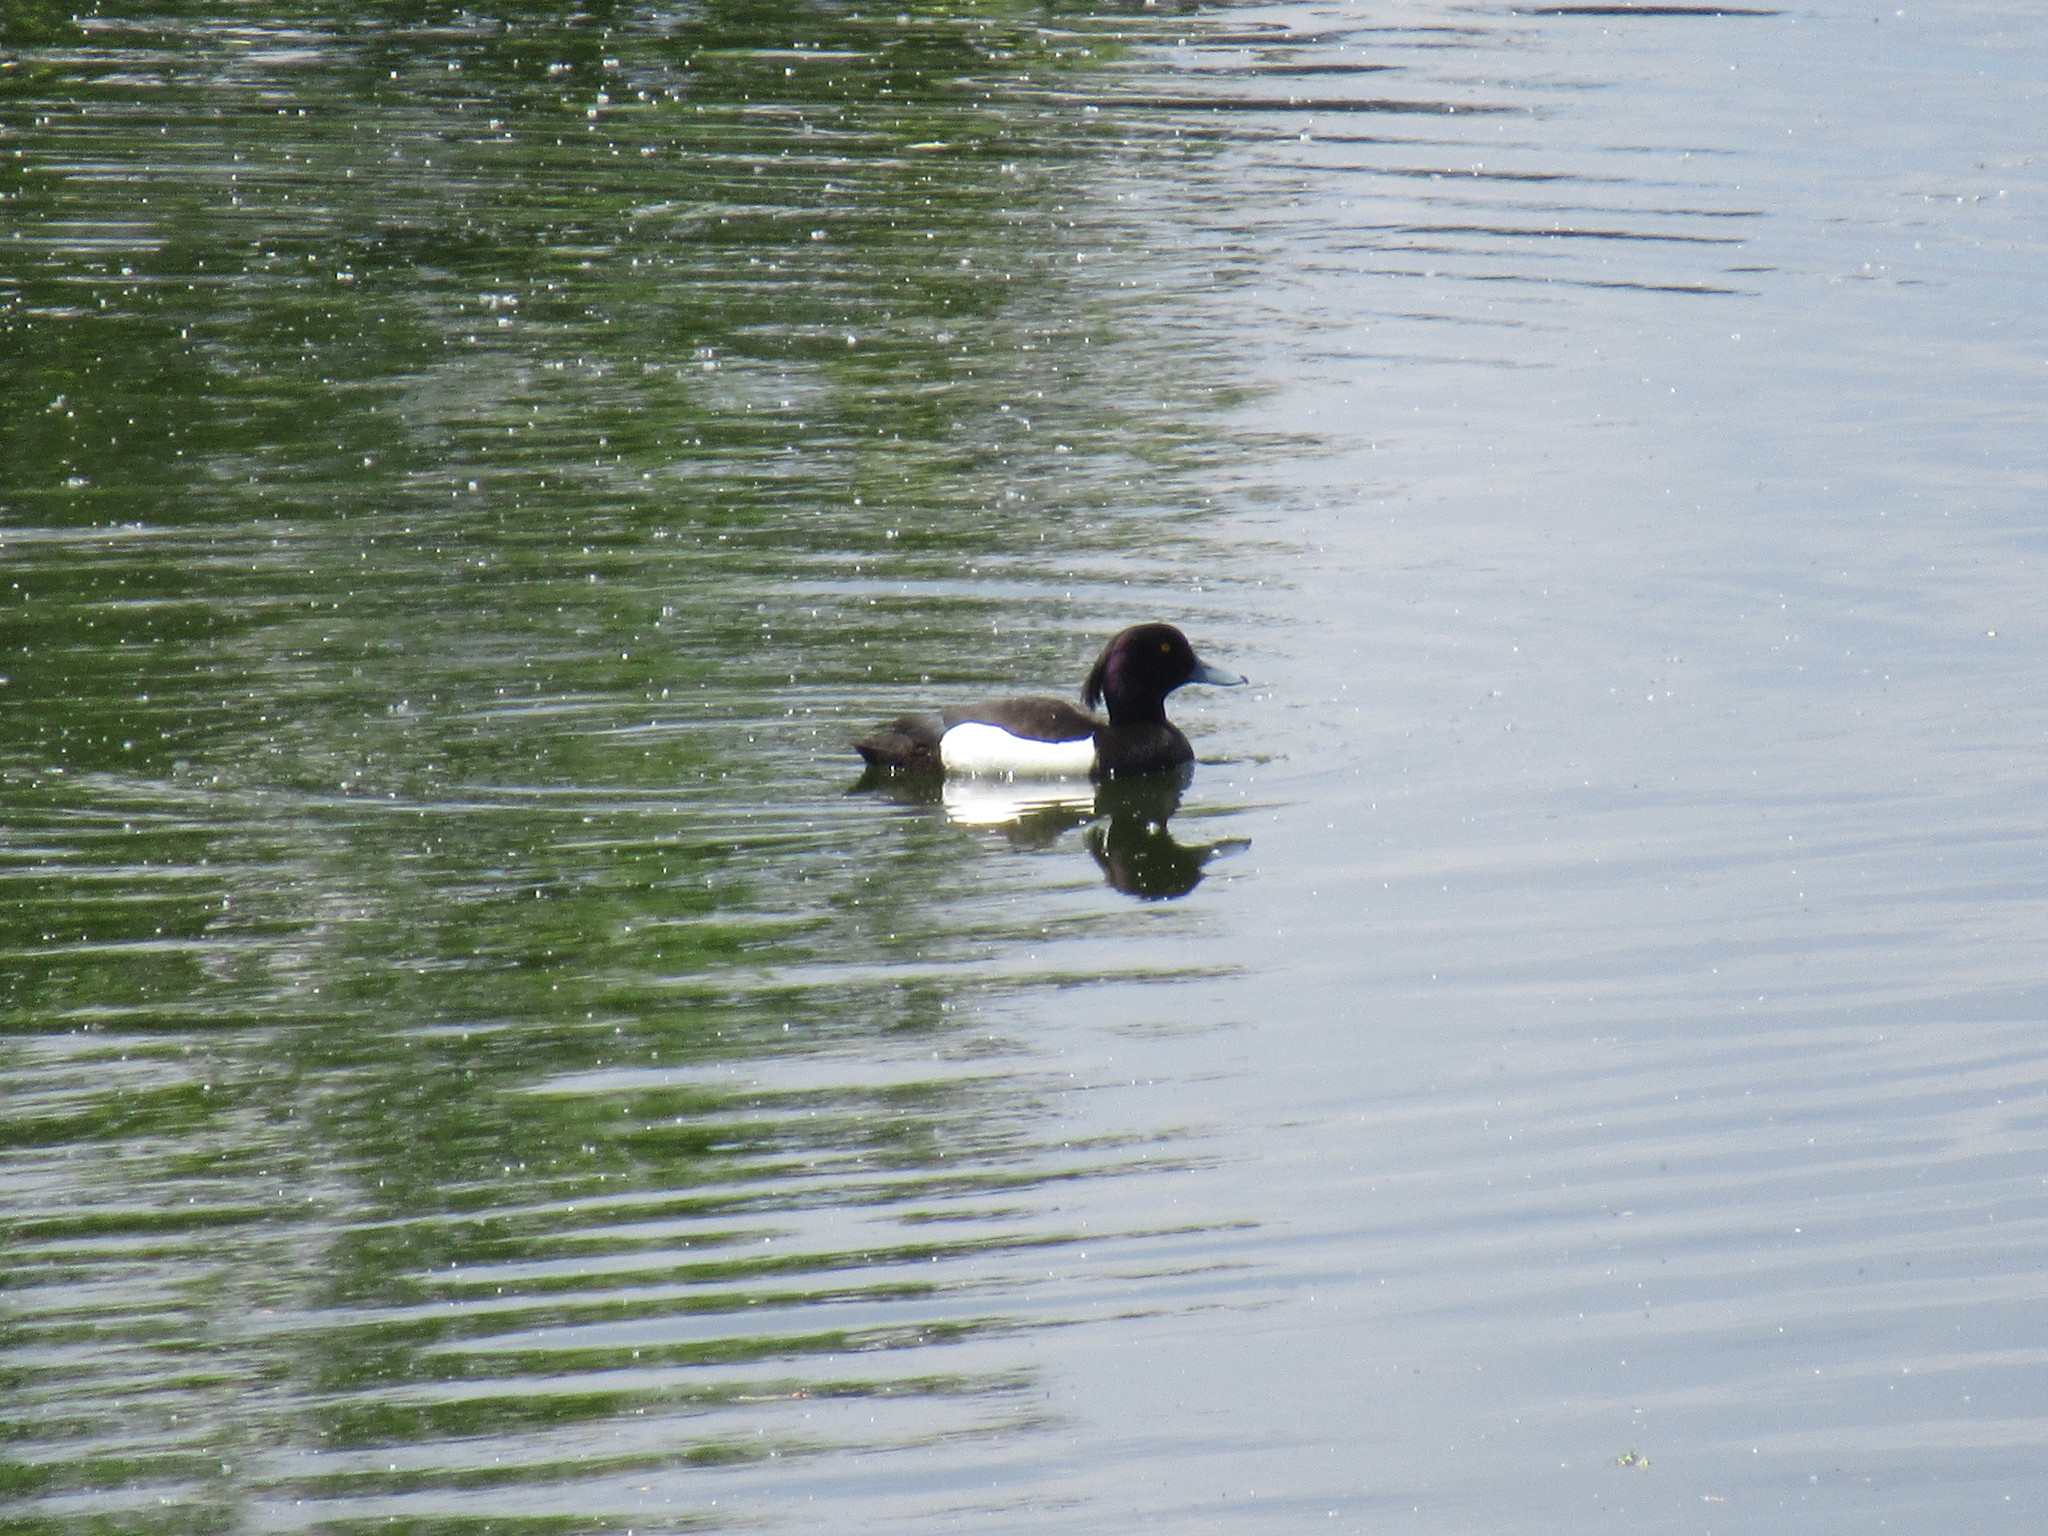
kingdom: Animalia
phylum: Chordata
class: Aves
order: Anseriformes
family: Anatidae
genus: Aythya
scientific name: Aythya fuligula
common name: Tufted duck
